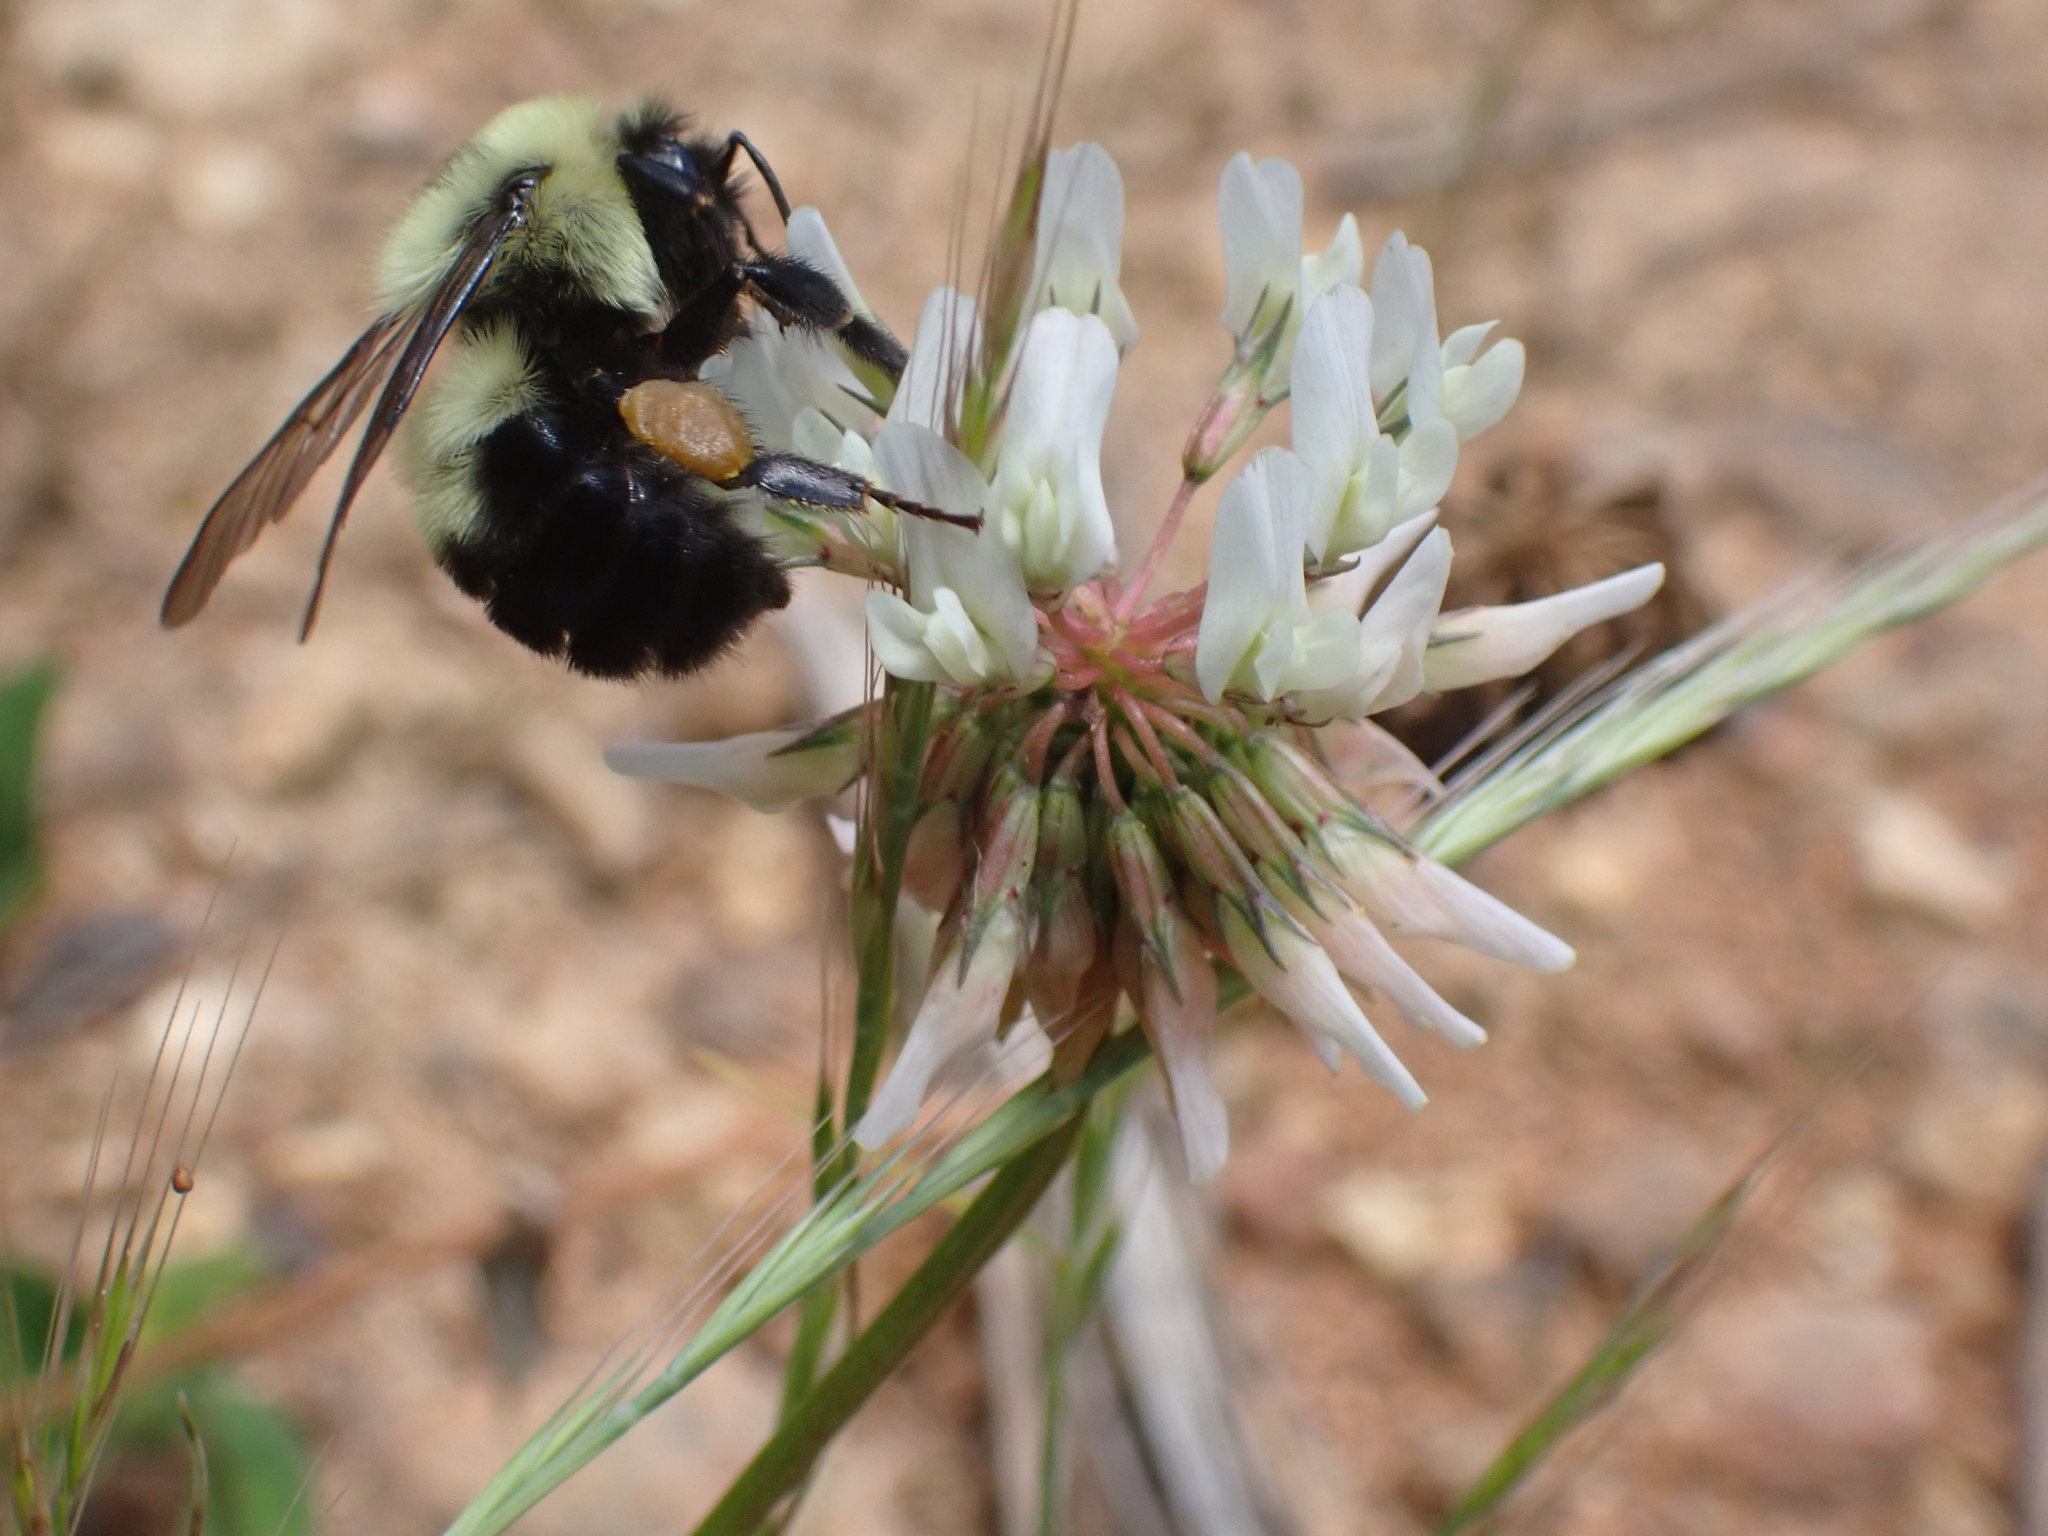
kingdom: Animalia
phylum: Arthropoda
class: Insecta
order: Hymenoptera
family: Apidae
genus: Bombus
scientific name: Bombus bimaculatus
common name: Two-spotted bumble bee
